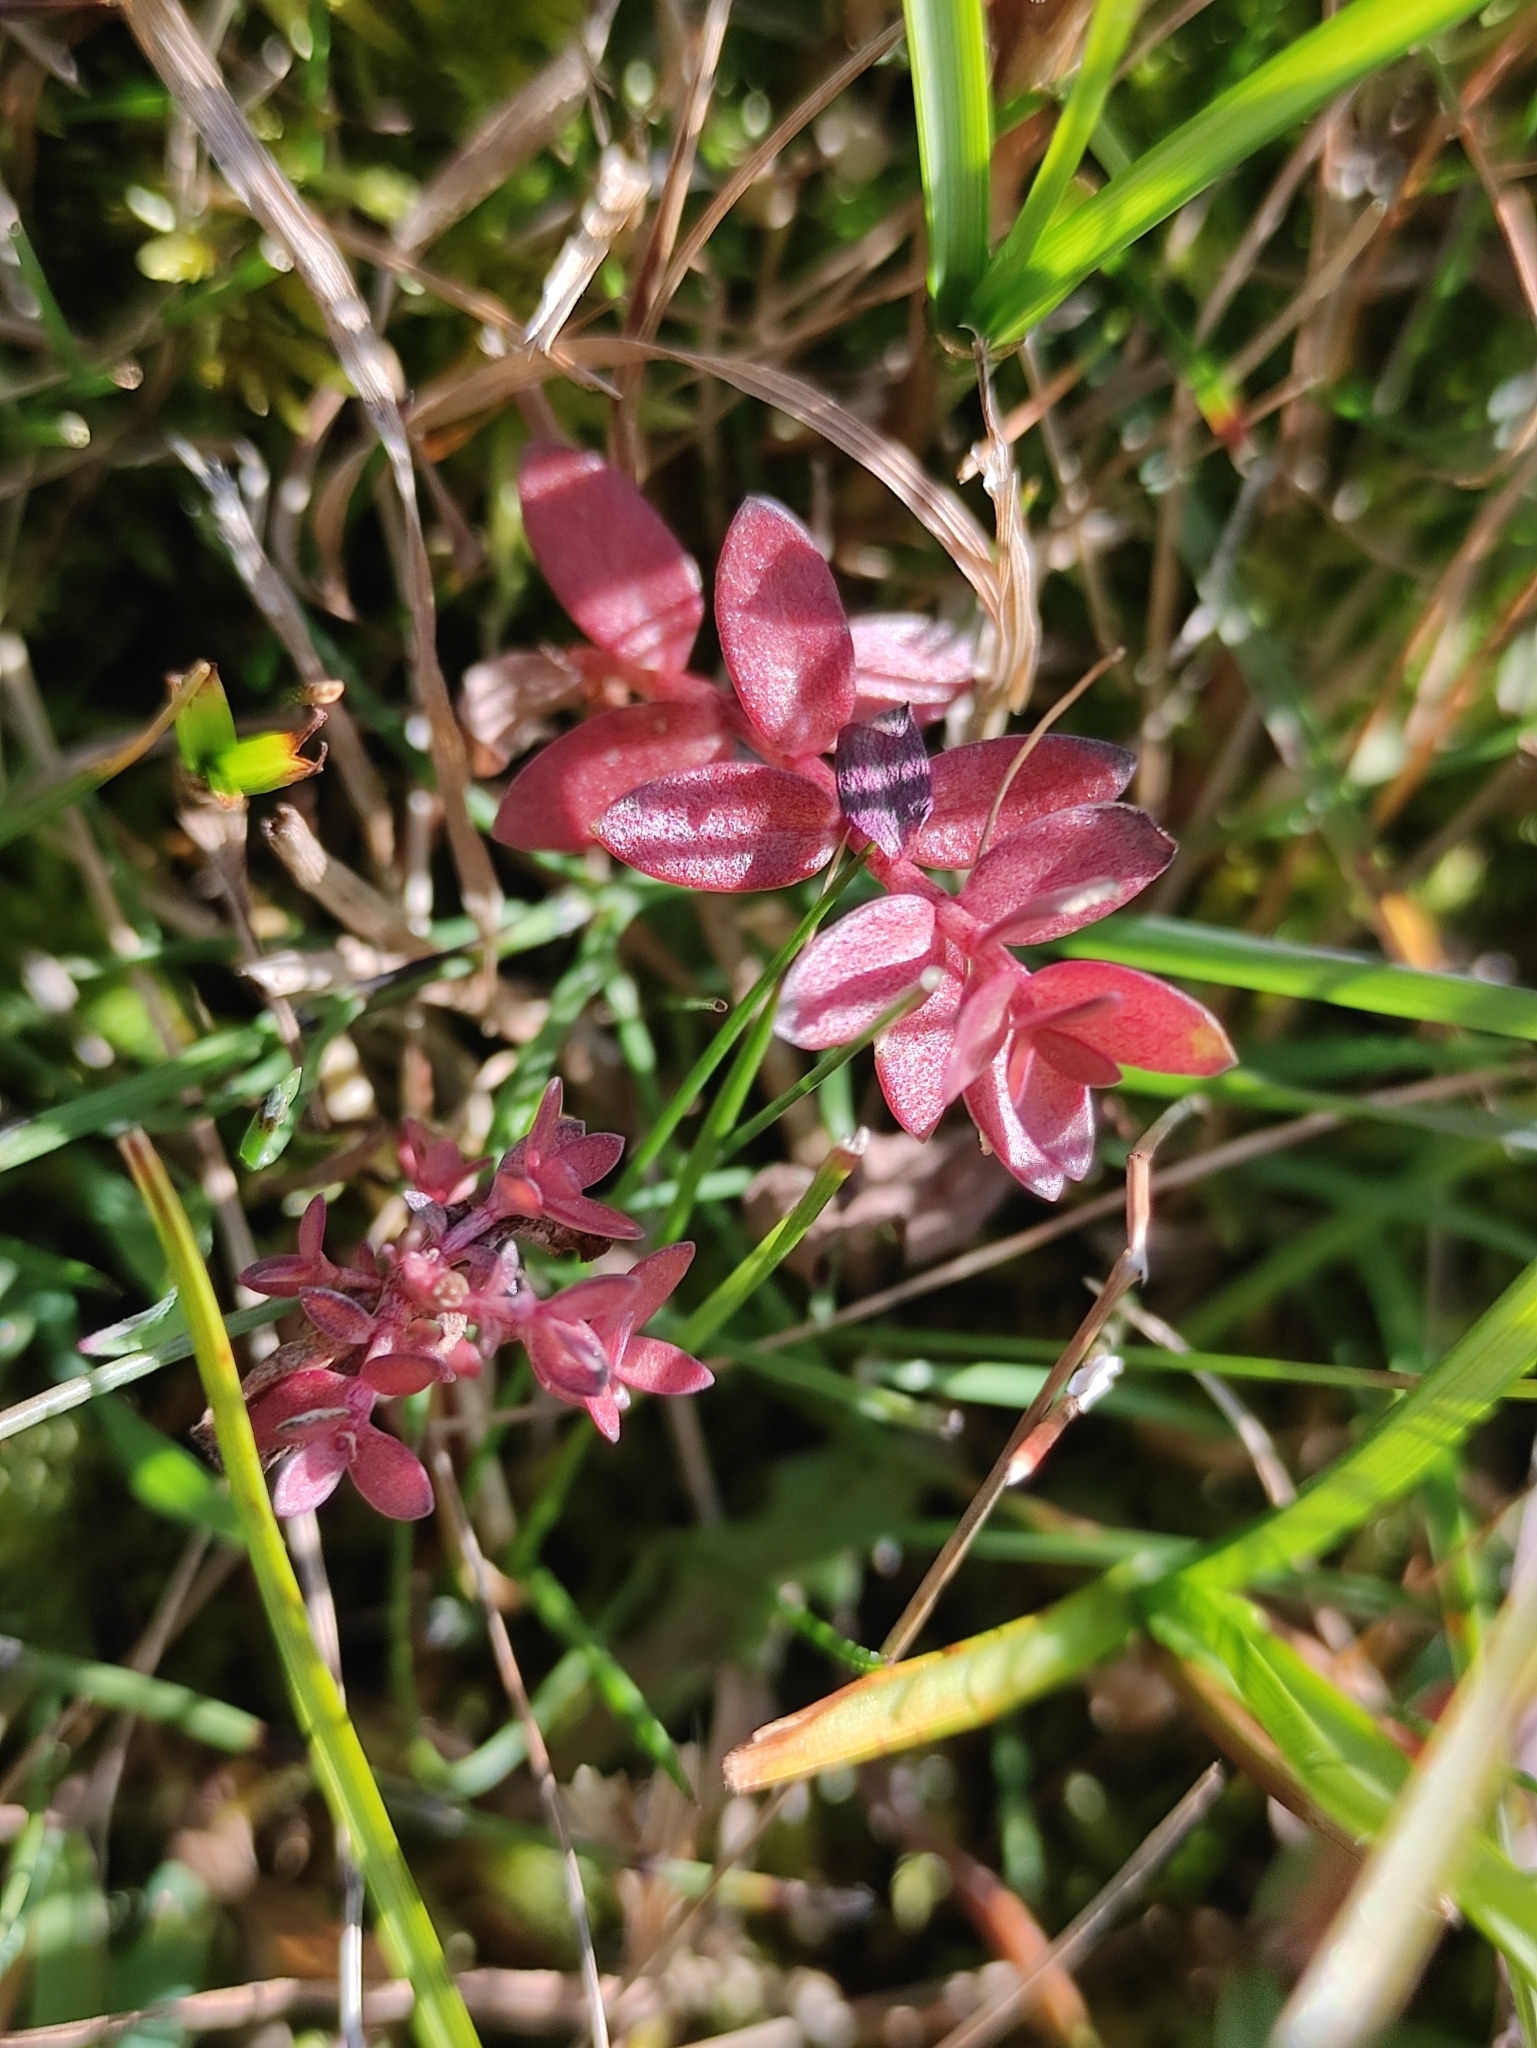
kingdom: Plantae
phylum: Tracheophyta
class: Magnoliopsida
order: Ericales
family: Primulaceae
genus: Lysimachia
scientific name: Lysimachia maritima
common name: Sea milkwort
